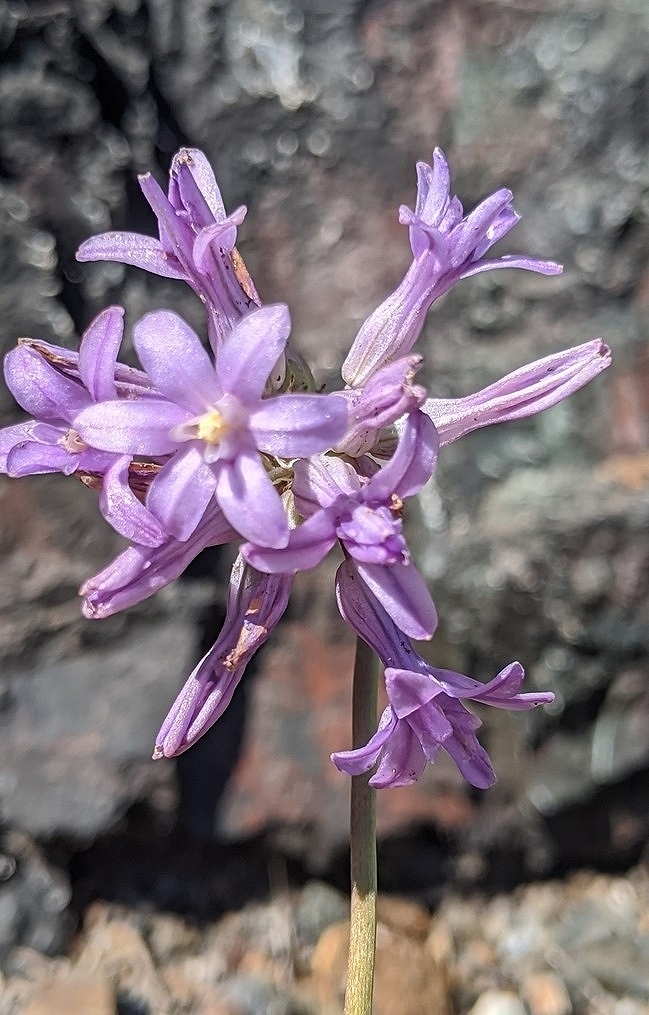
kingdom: Plantae
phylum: Tracheophyta
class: Liliopsida
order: Asparagales
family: Asparagaceae
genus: Dichelostemma
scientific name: Dichelostemma multiflorum
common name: Round-tooth ookow
